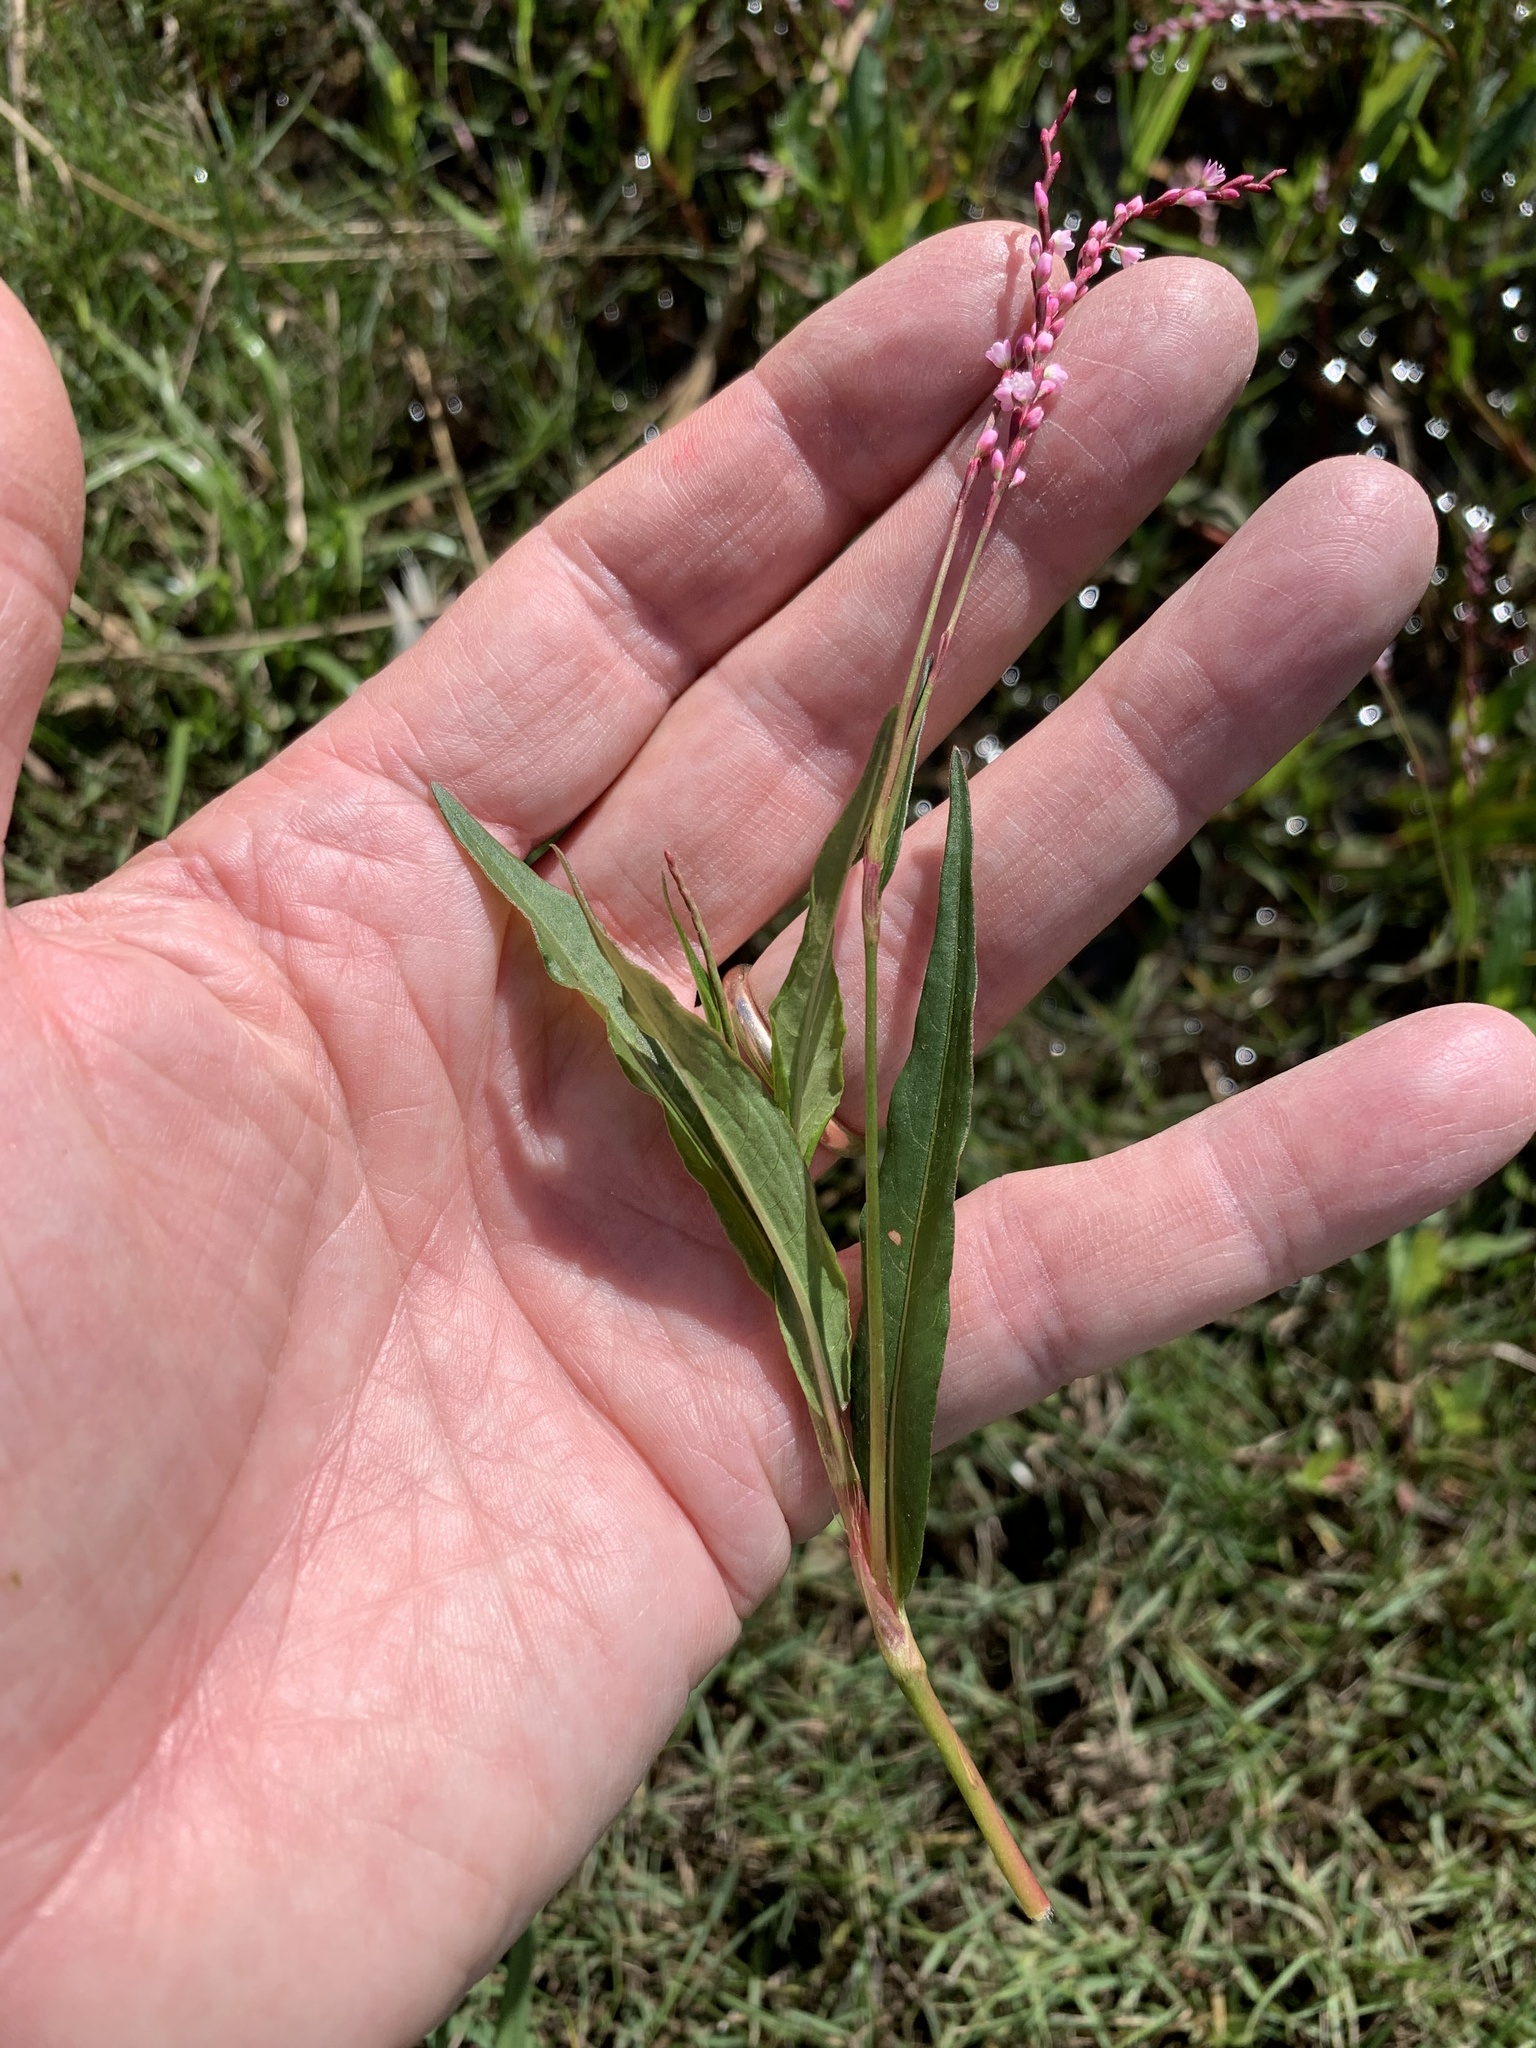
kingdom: Plantae
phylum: Tracheophyta
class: Magnoliopsida
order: Caryophyllales
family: Polygonaceae
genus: Persicaria
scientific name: Persicaria decipiens
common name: Willow-weed
